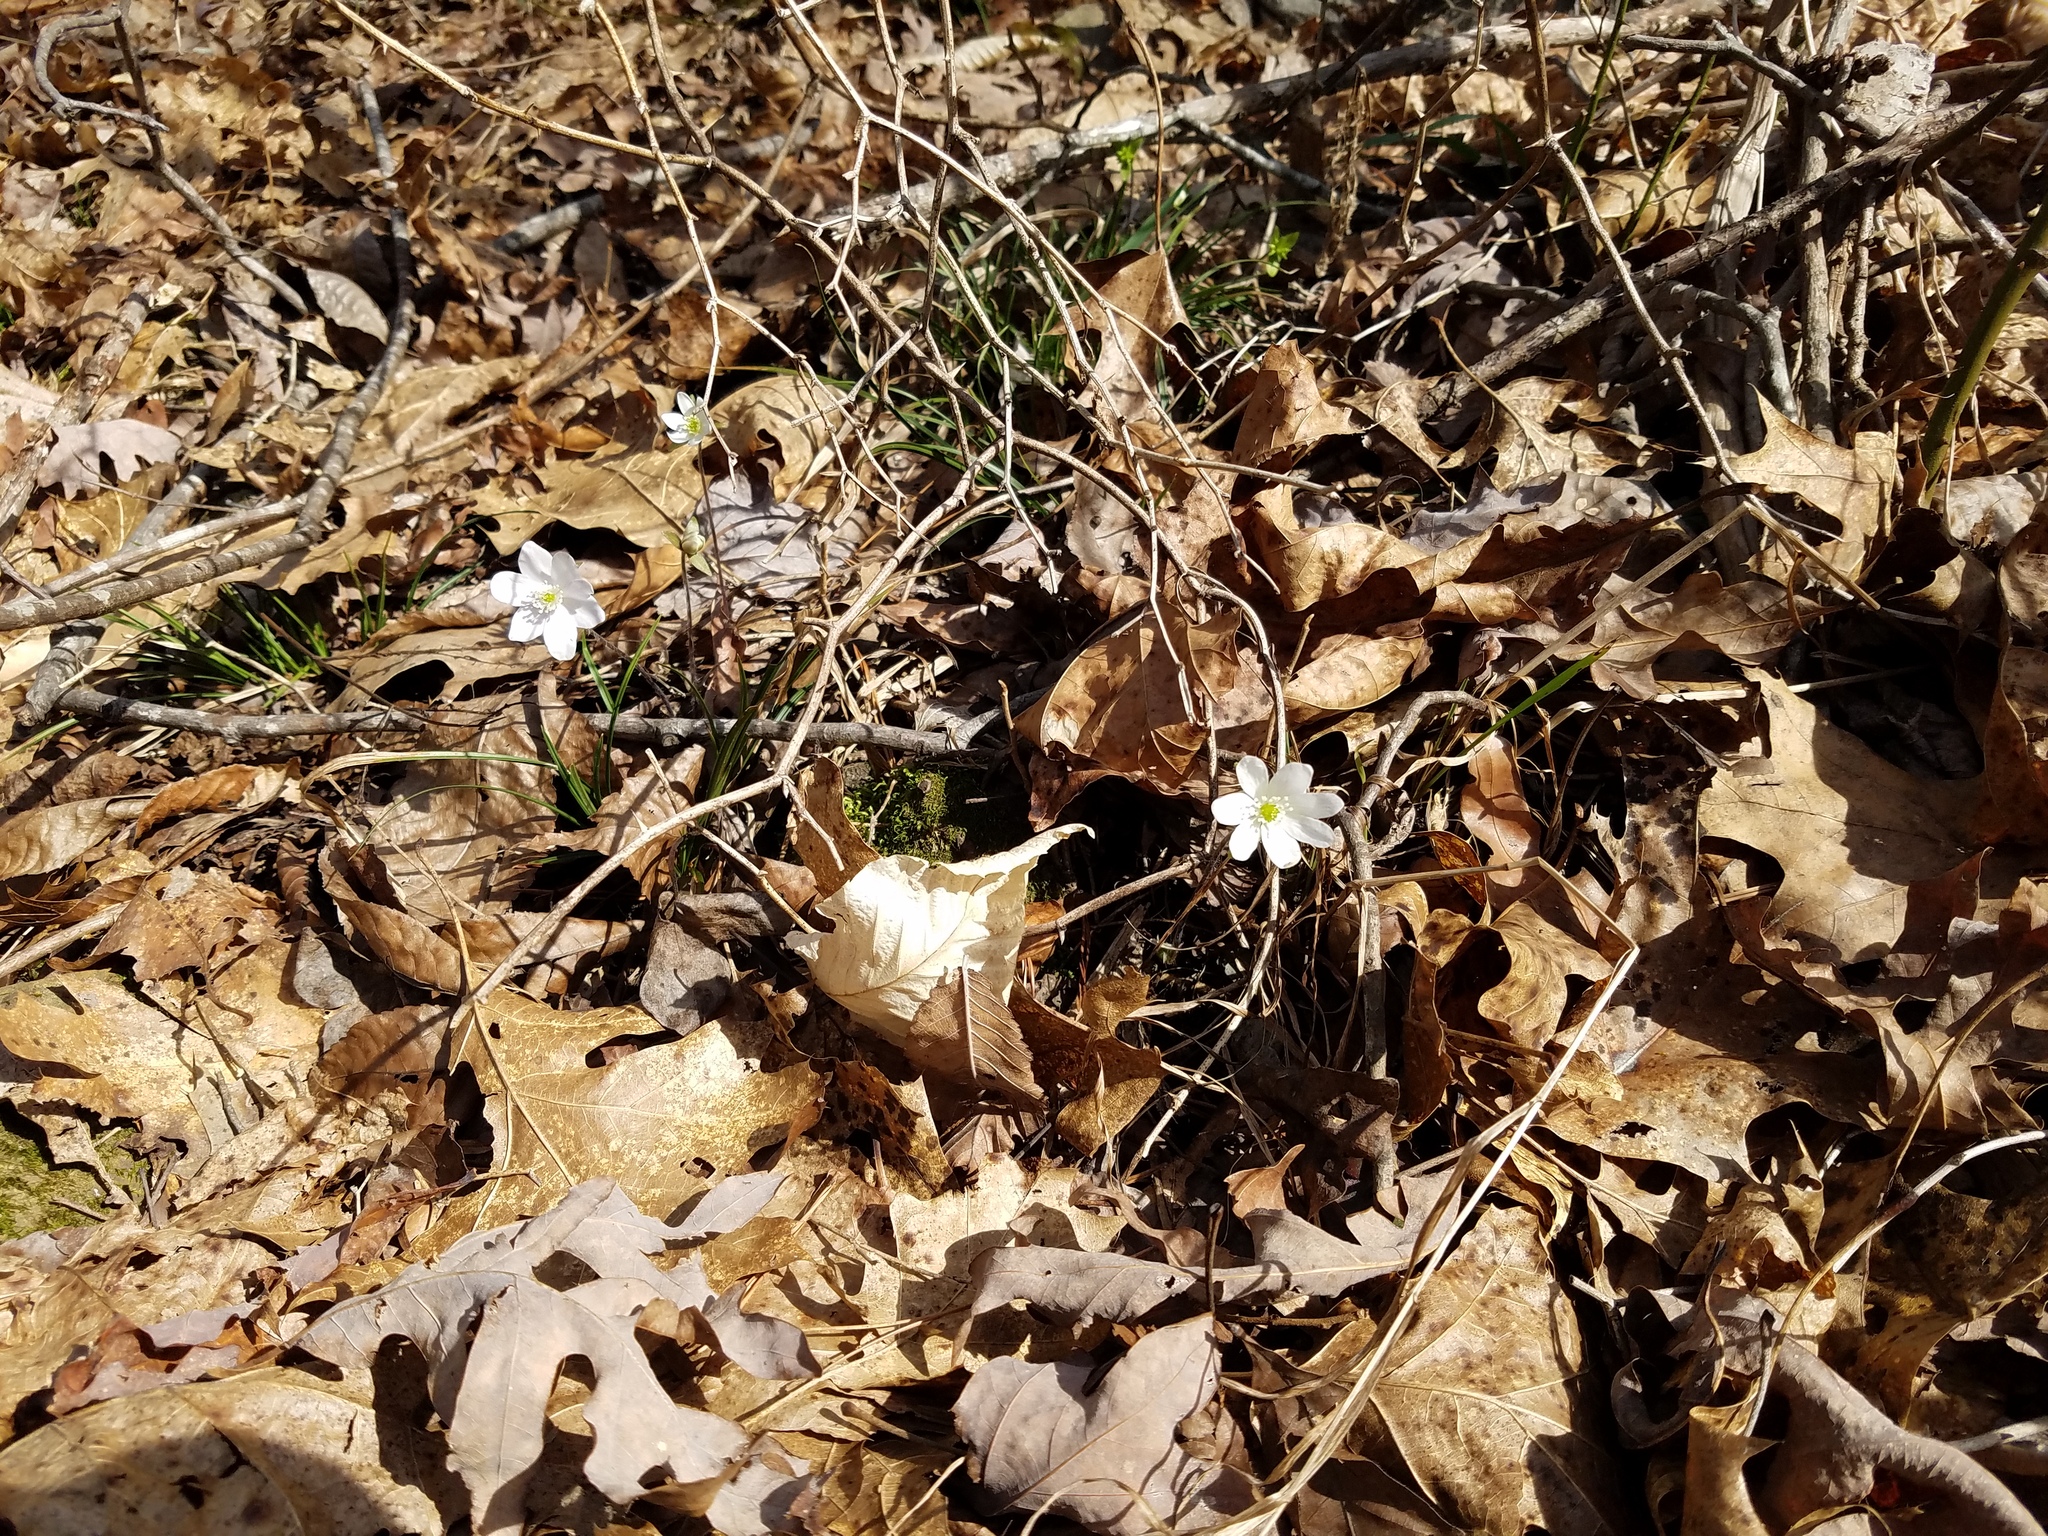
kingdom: Plantae
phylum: Tracheophyta
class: Magnoliopsida
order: Ranunculales
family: Ranunculaceae
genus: Hepatica
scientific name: Hepatica acutiloba
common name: Sharp-lobed hepatica
